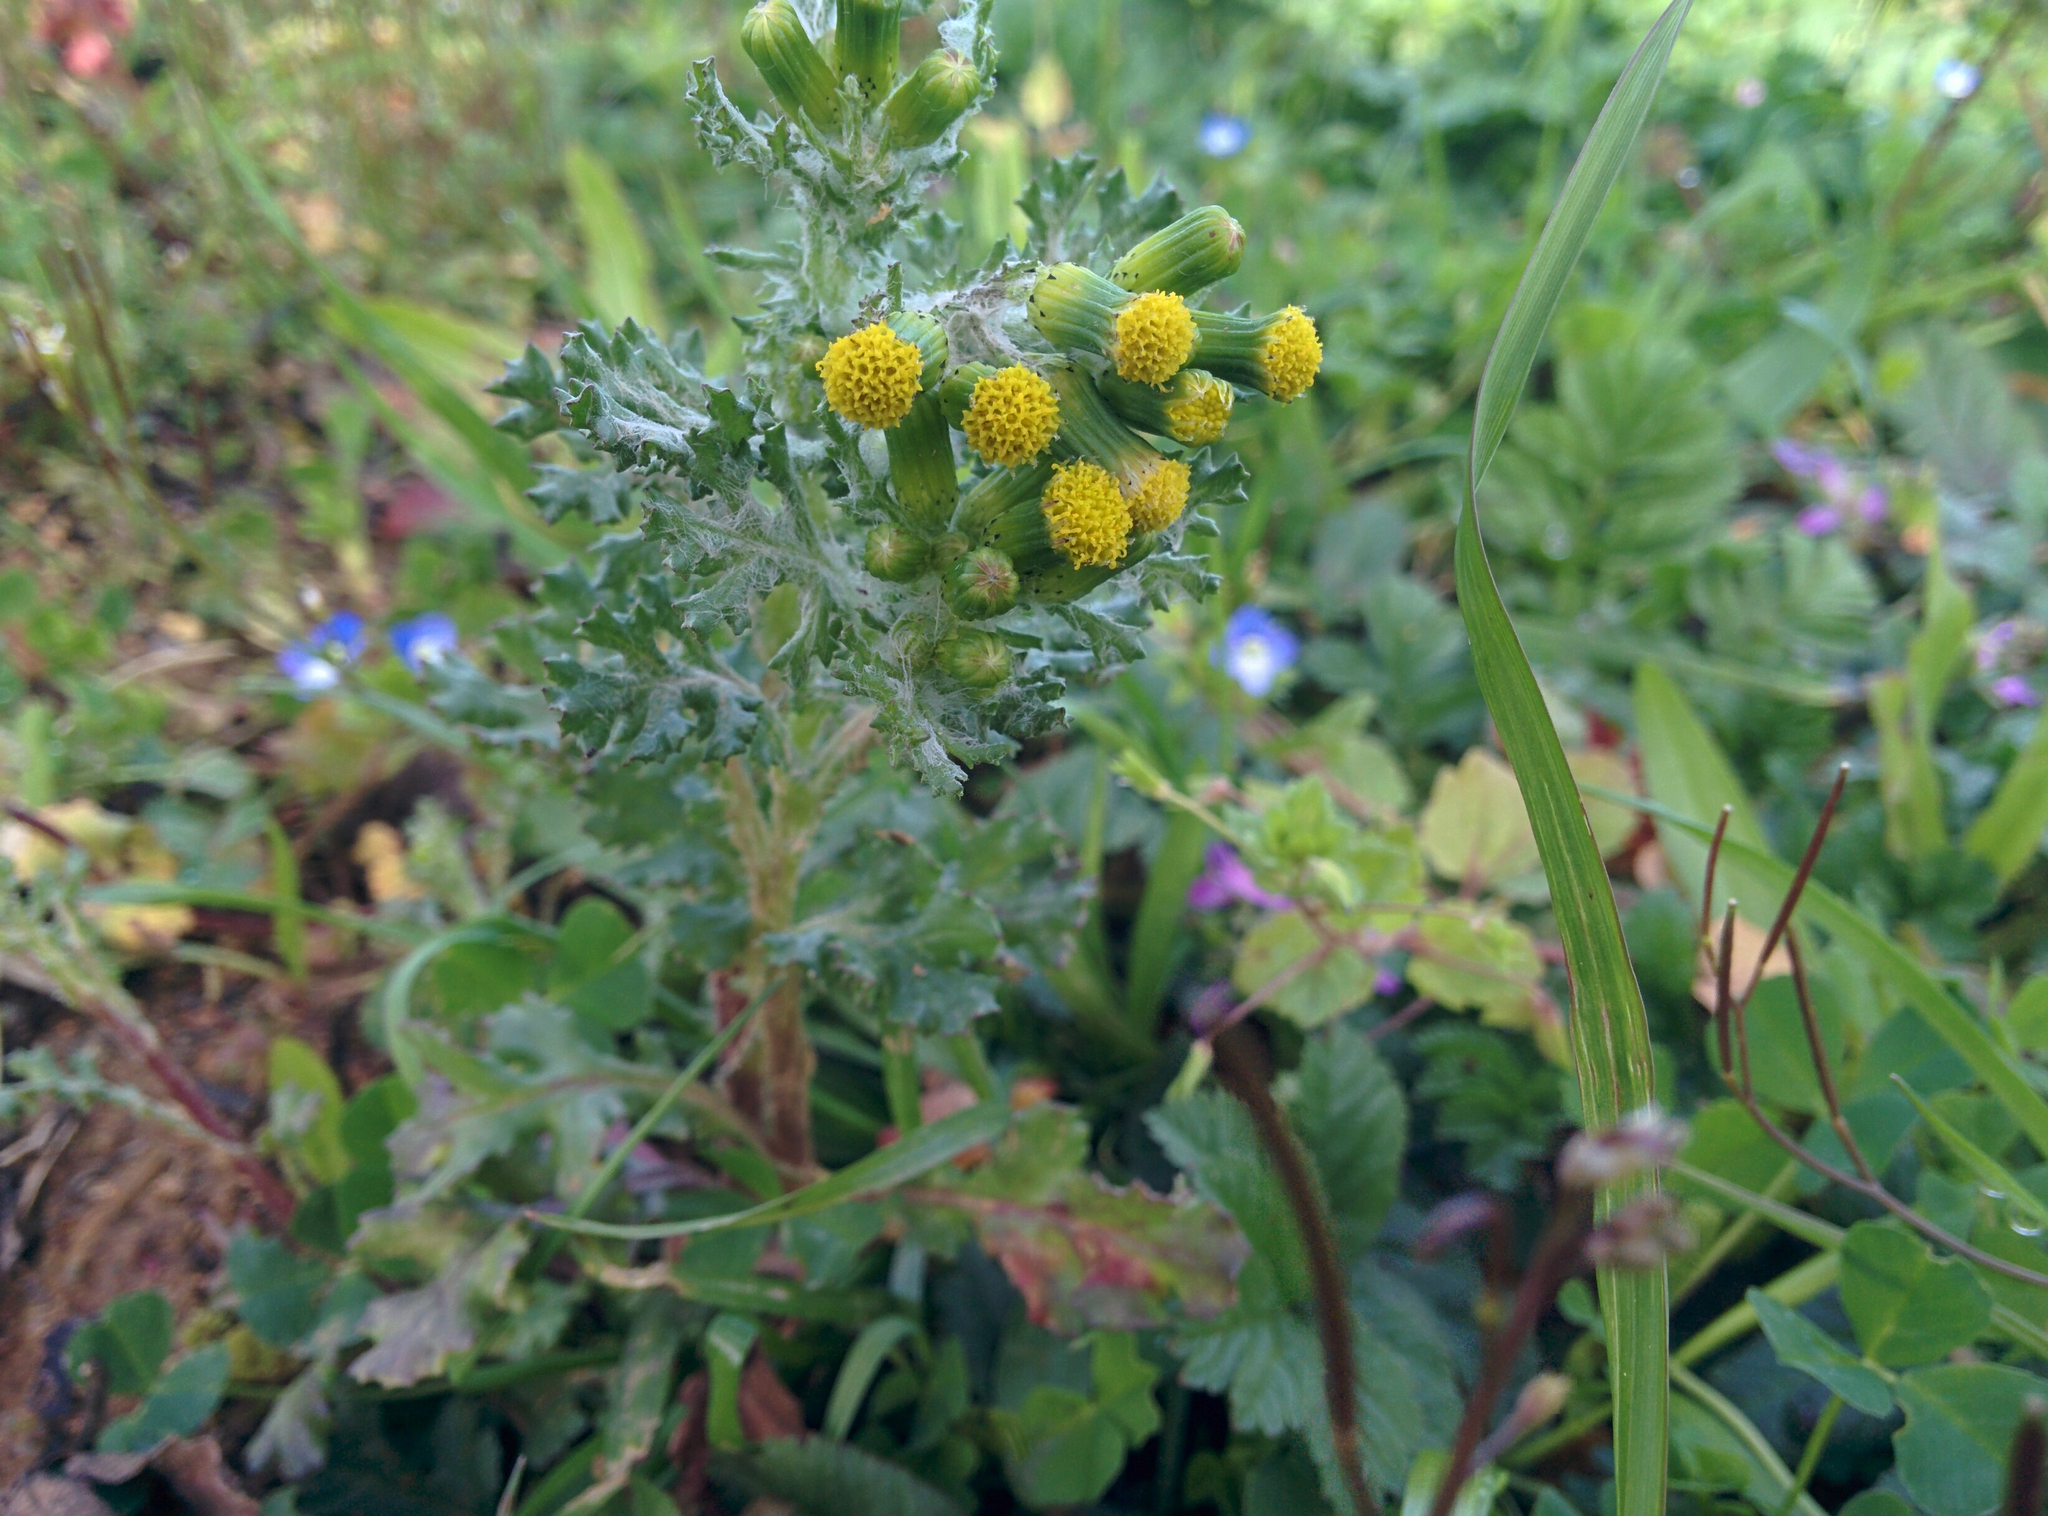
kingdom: Plantae
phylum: Tracheophyta
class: Magnoliopsida
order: Asterales
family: Asteraceae
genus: Senecio
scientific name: Senecio vulgaris
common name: Old-man-in-the-spring
